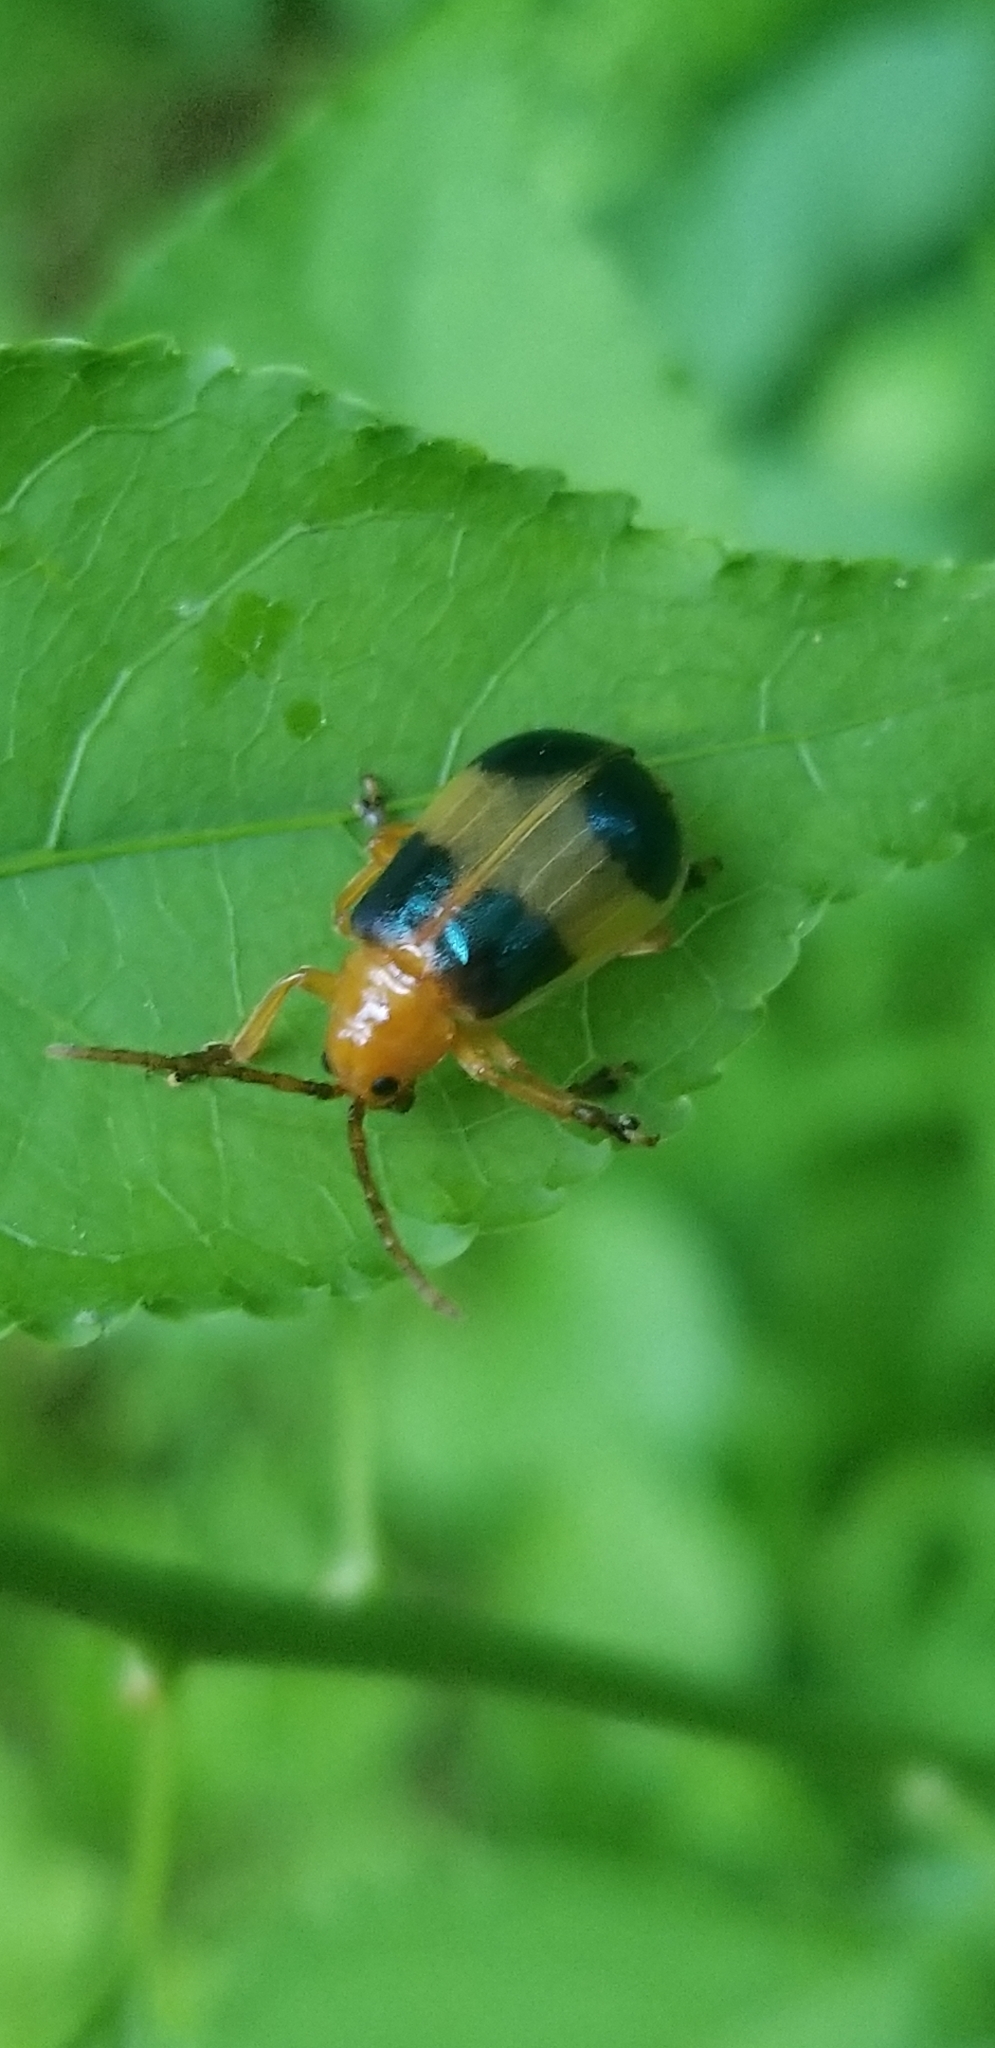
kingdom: Animalia
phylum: Arthropoda
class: Insecta
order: Coleoptera
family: Chrysomelidae
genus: Monocesta
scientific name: Monocesta coryli
